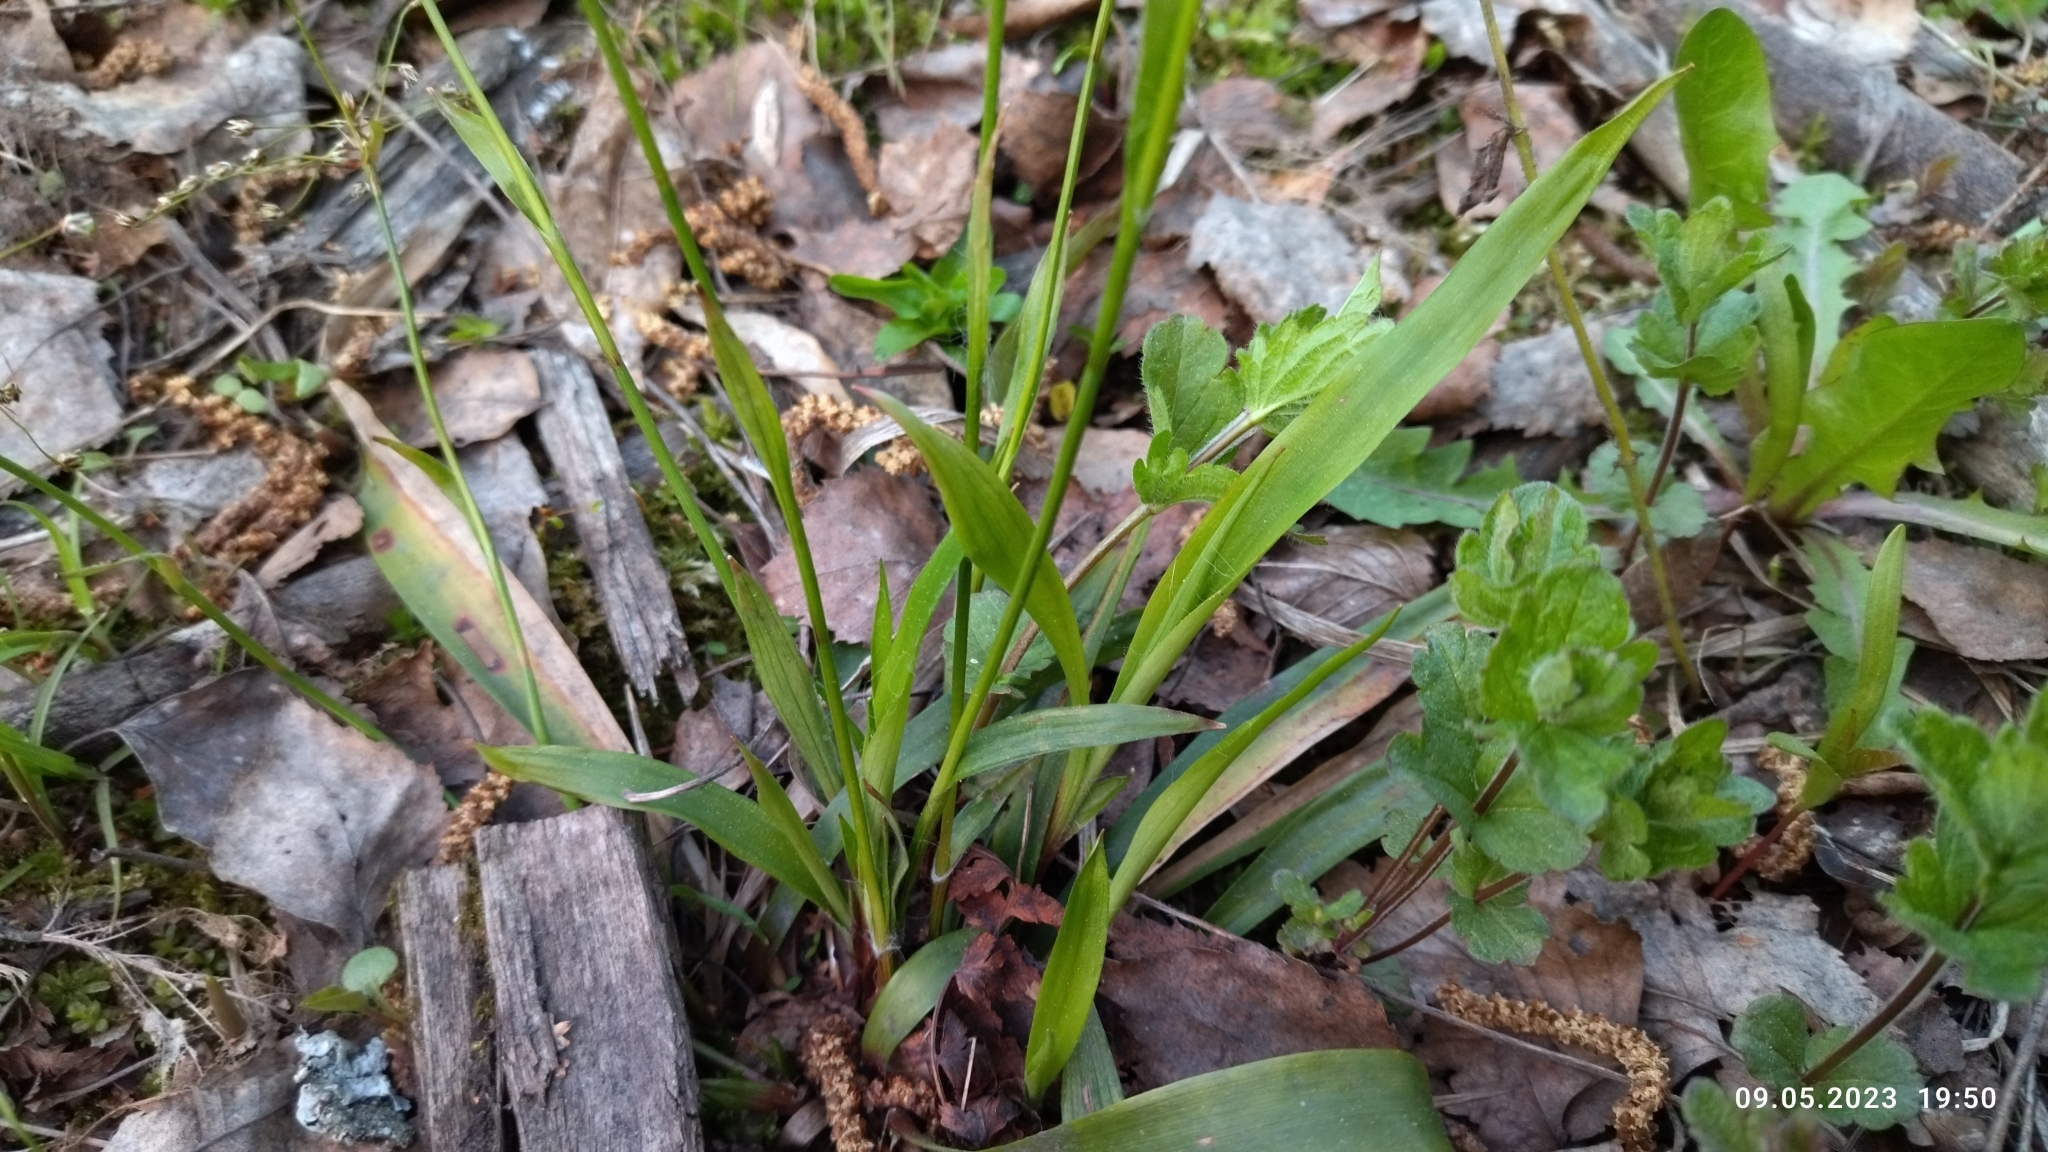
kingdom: Plantae
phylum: Tracheophyta
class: Liliopsida
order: Poales
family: Juncaceae
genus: Luzula
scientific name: Luzula pilosa
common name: Hairy wood-rush
